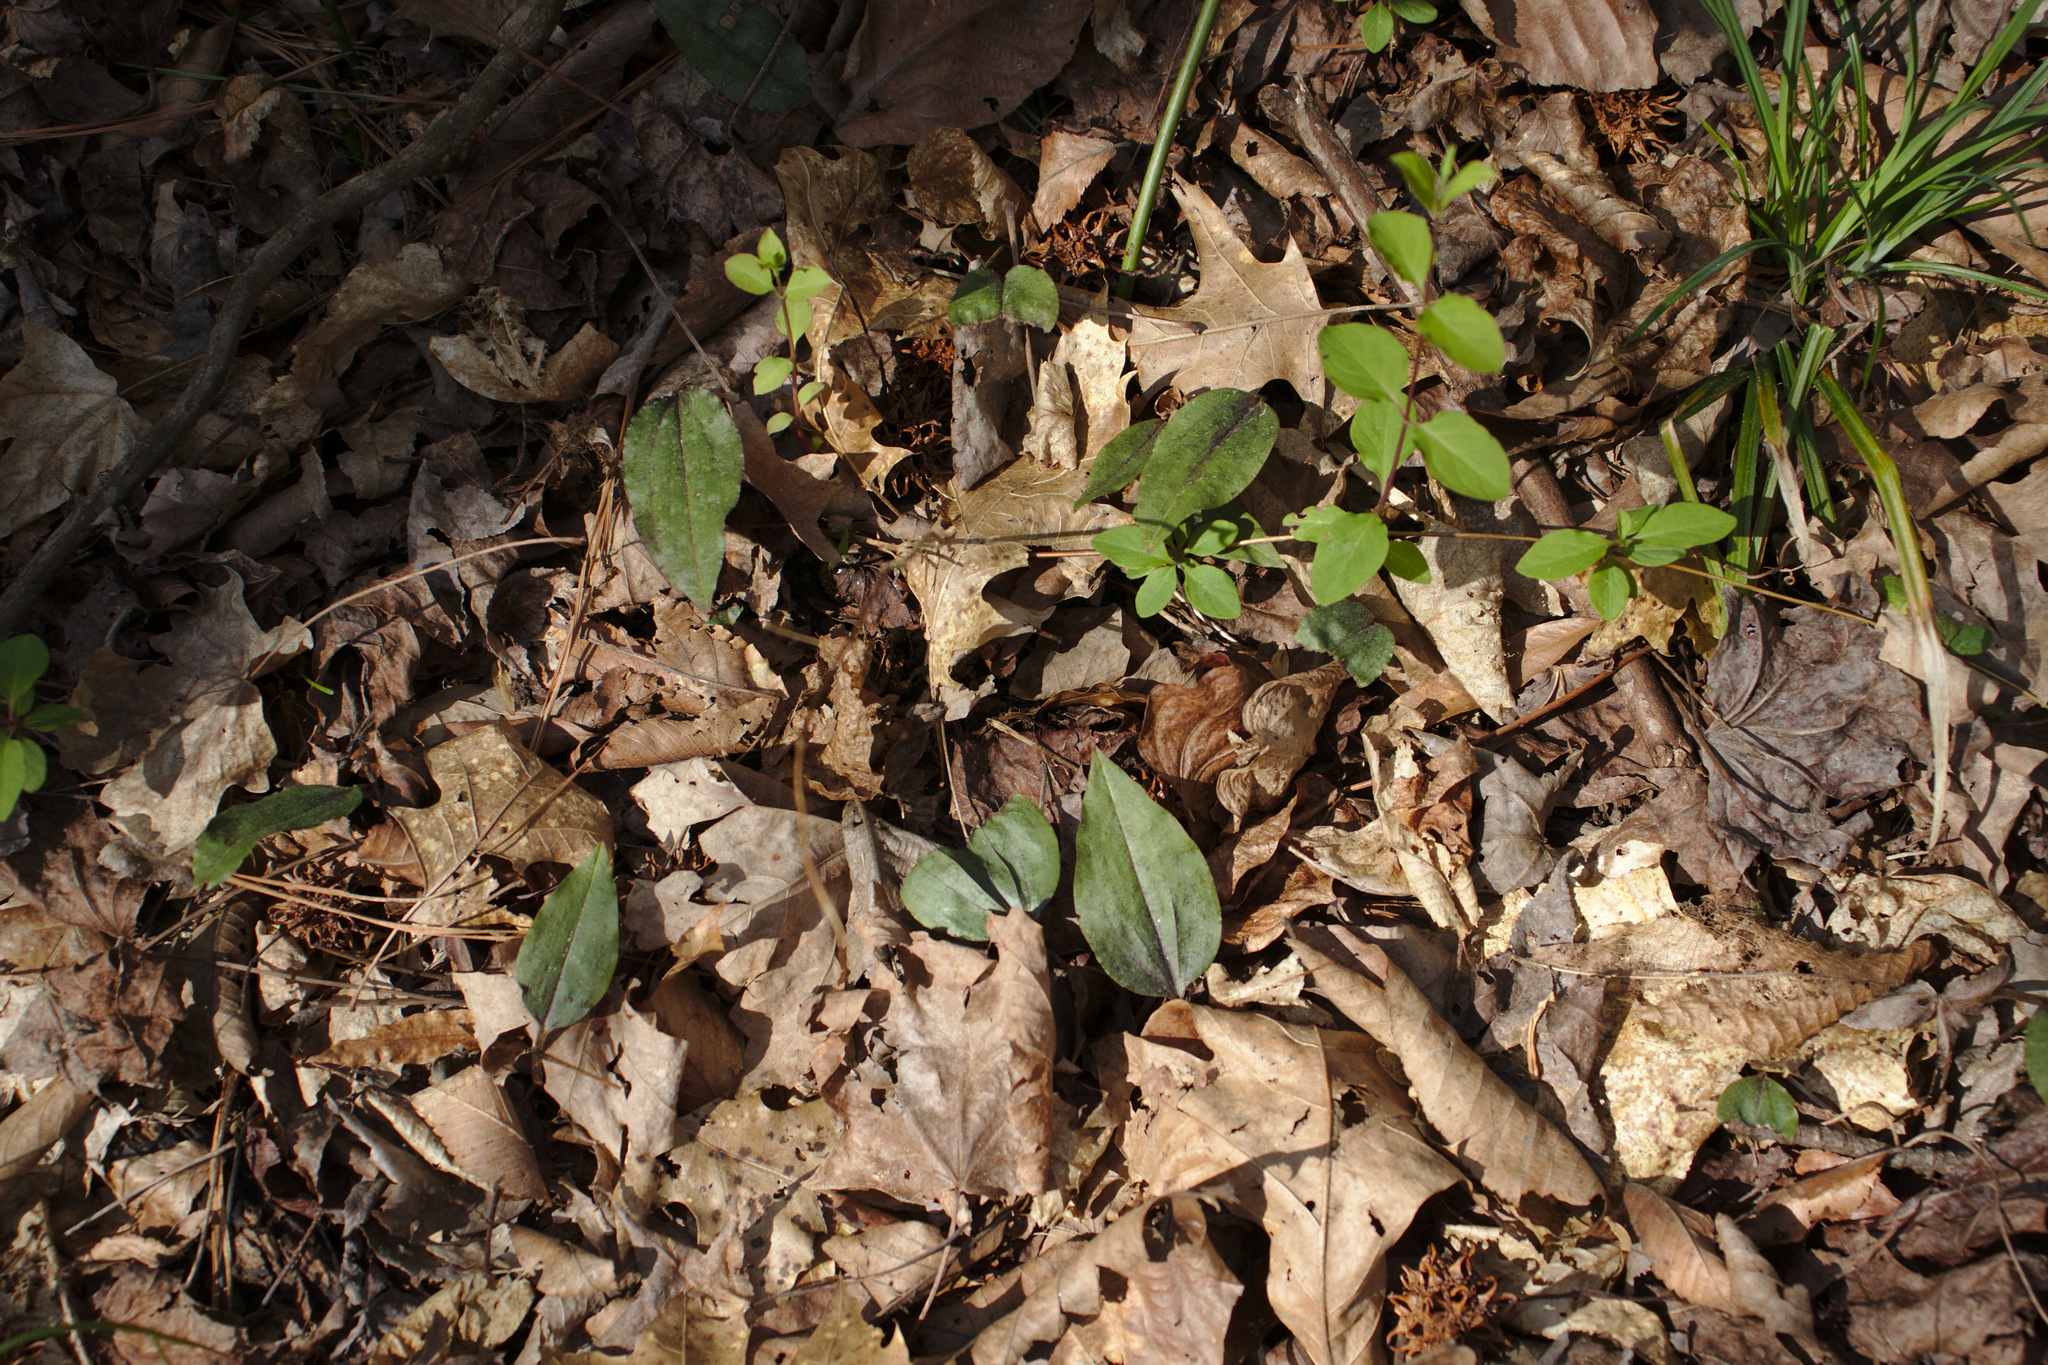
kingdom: Plantae
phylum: Tracheophyta
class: Liliopsida
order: Asparagales
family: Orchidaceae
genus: Tipularia
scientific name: Tipularia discolor
